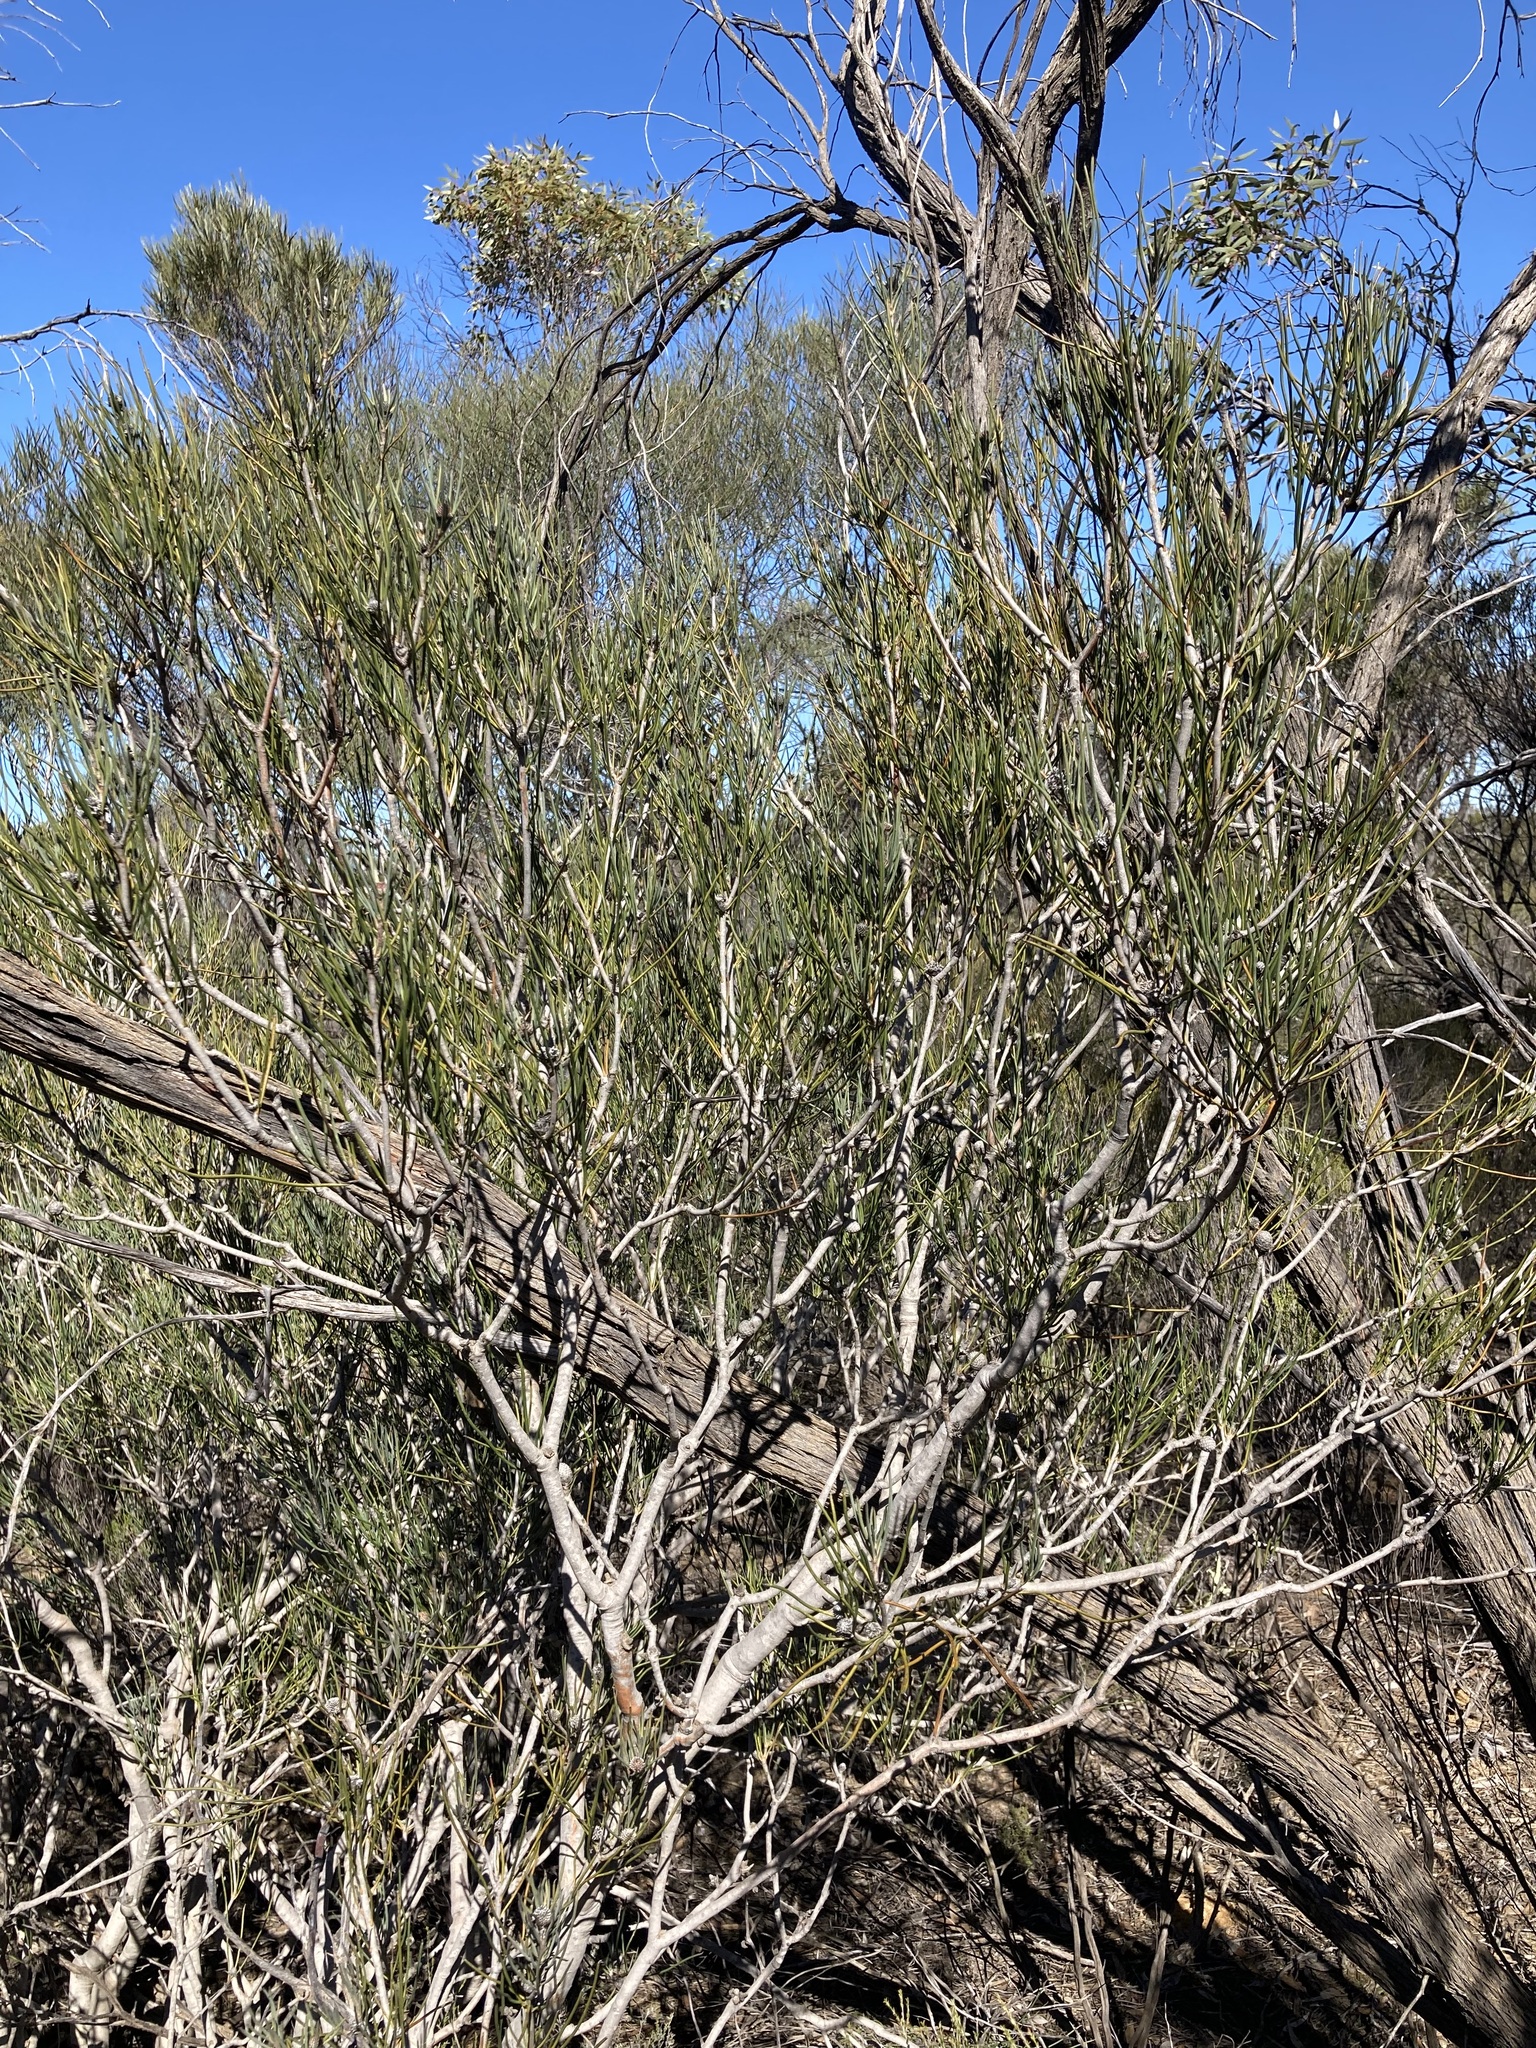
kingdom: Plantae
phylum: Tracheophyta
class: Magnoliopsida
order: Proteales
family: Proteaceae
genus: Petrophile
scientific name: Petrophile stricta
